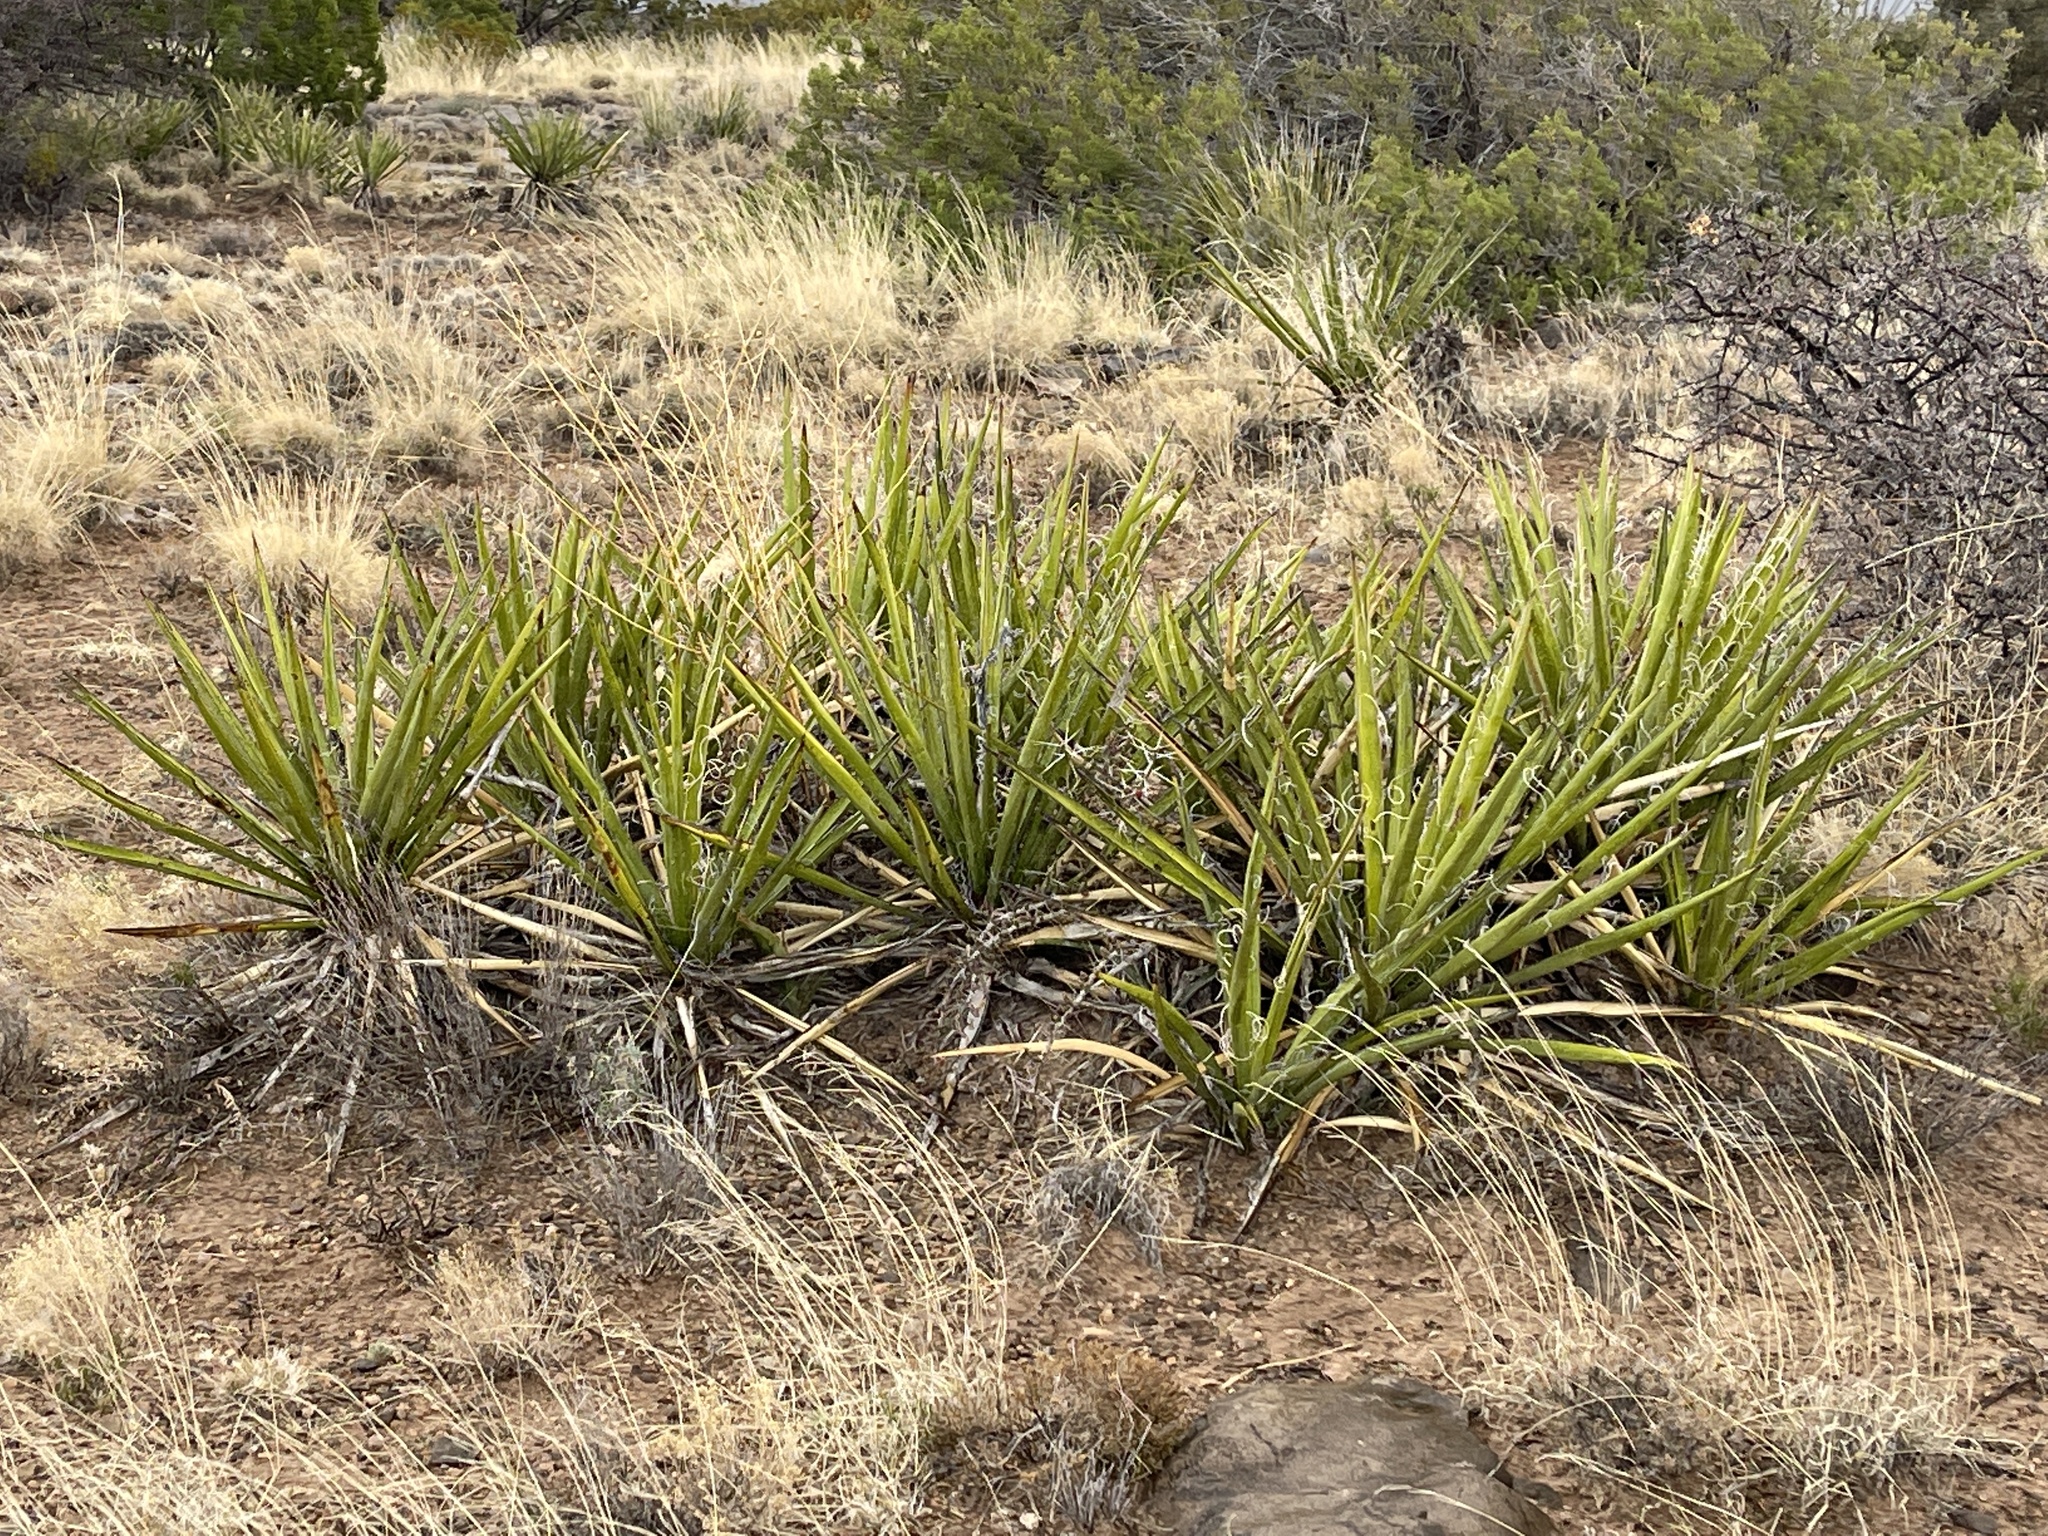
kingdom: Plantae
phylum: Tracheophyta
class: Liliopsida
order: Asparagales
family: Asparagaceae
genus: Yucca
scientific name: Yucca baccata
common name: Banana yucca
